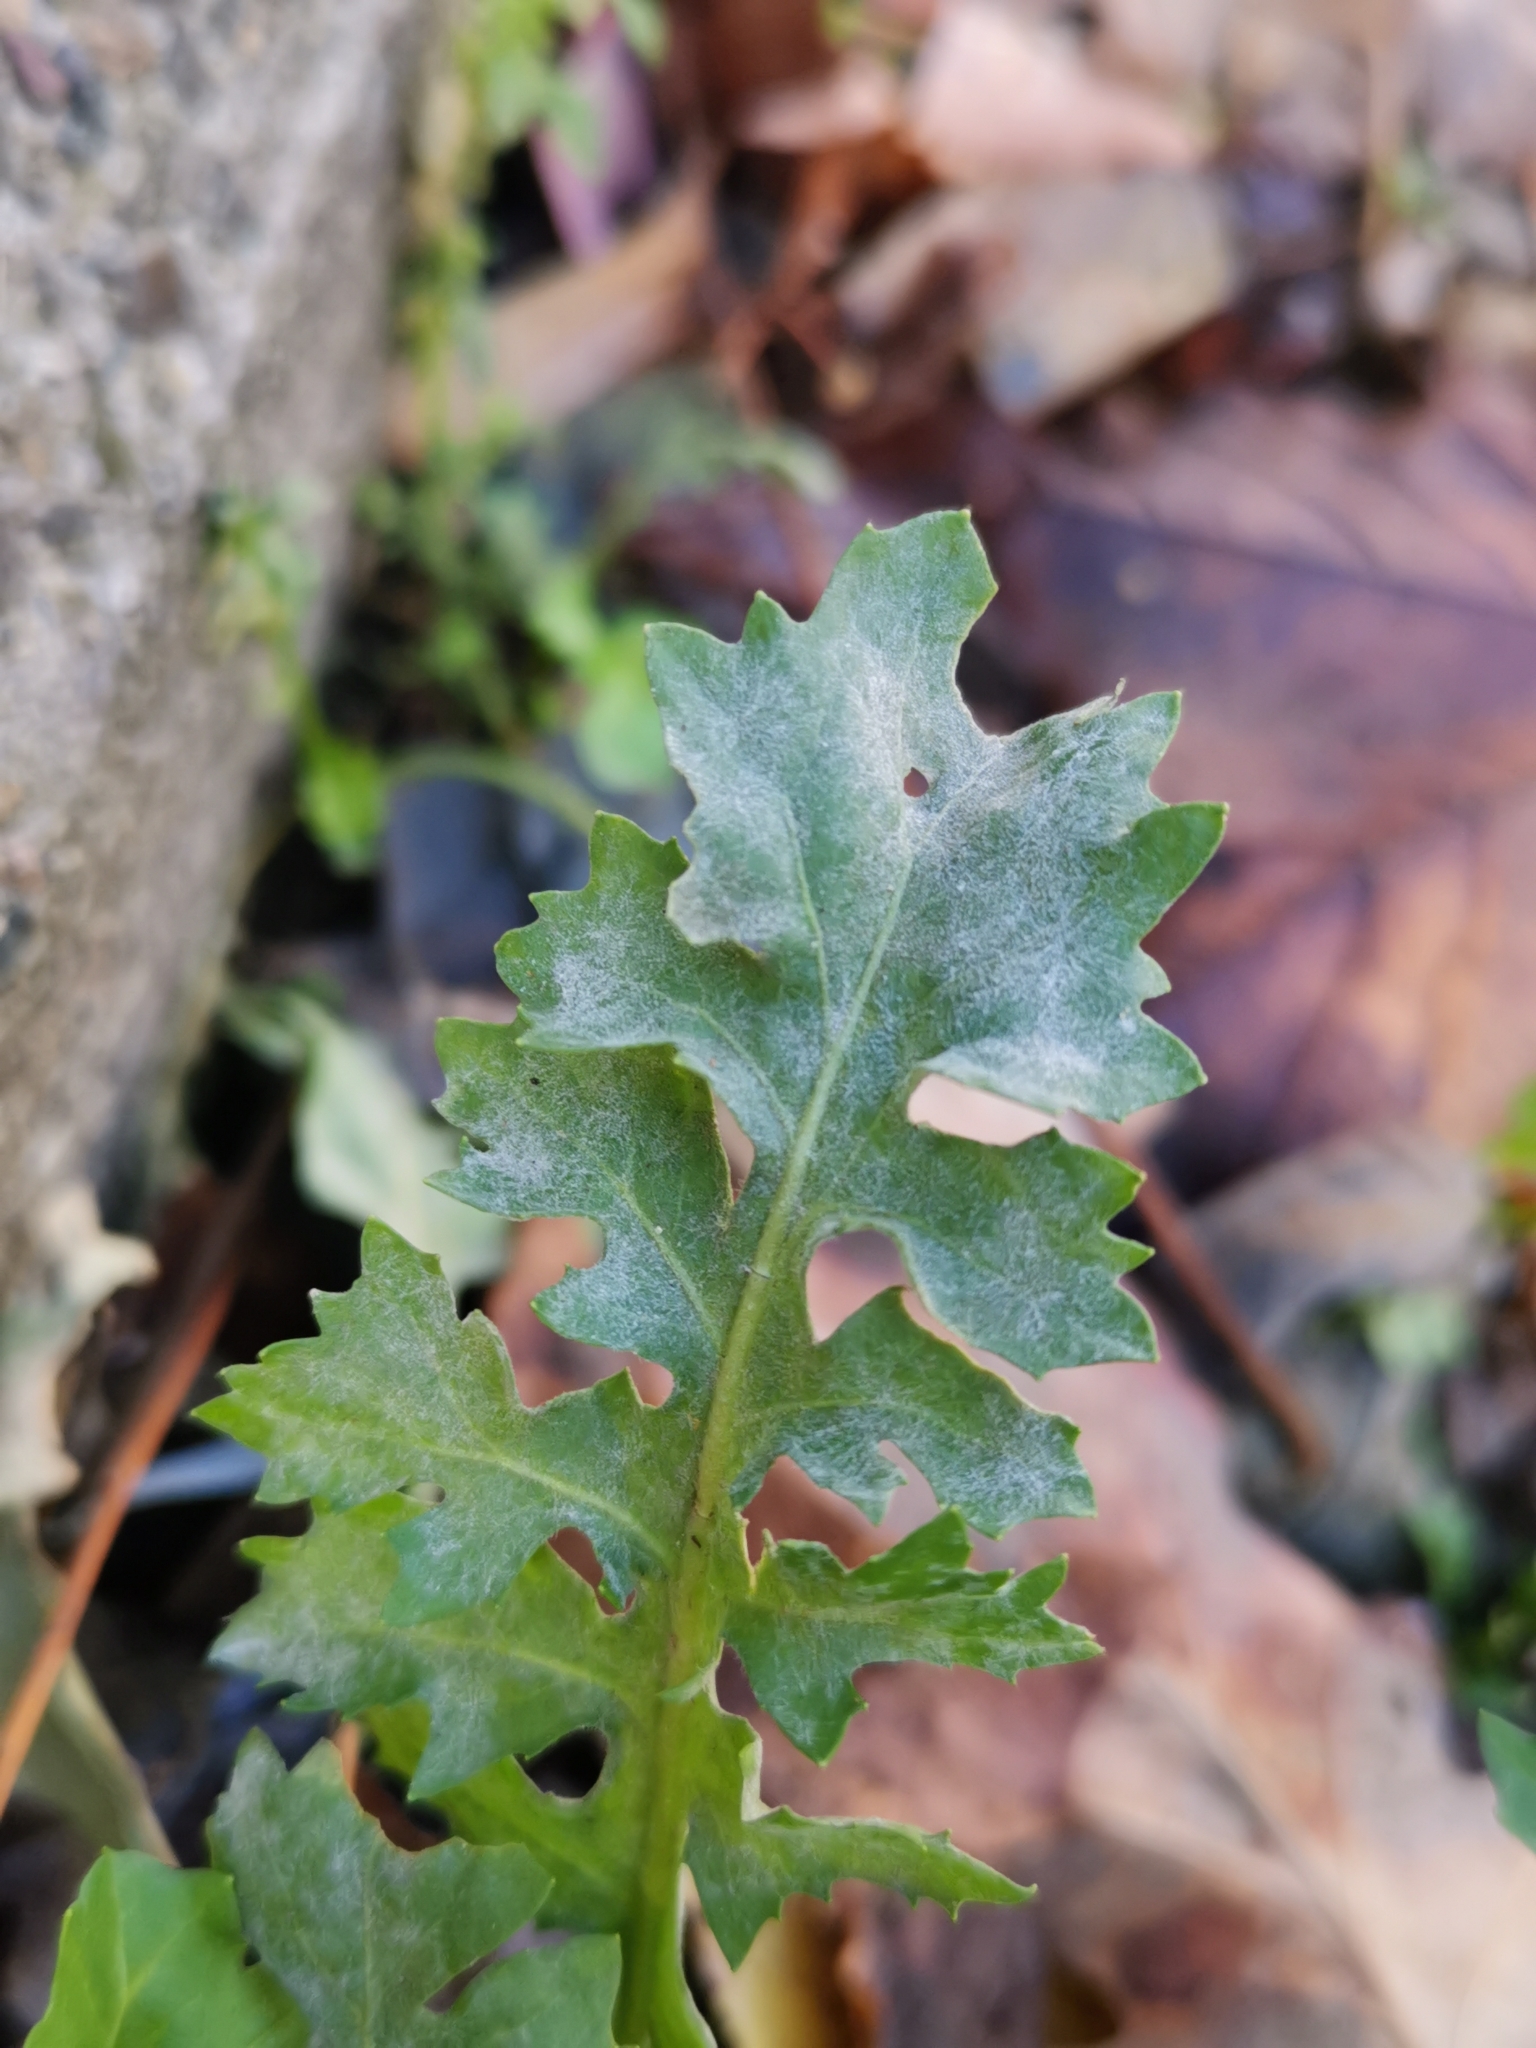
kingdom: Fungi
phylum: Ascomycota
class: Leotiomycetes
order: Helotiales
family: Erysiphaceae
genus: Erysiphe
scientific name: Erysiphe cruciferarum
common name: Brassica powdery mildew
